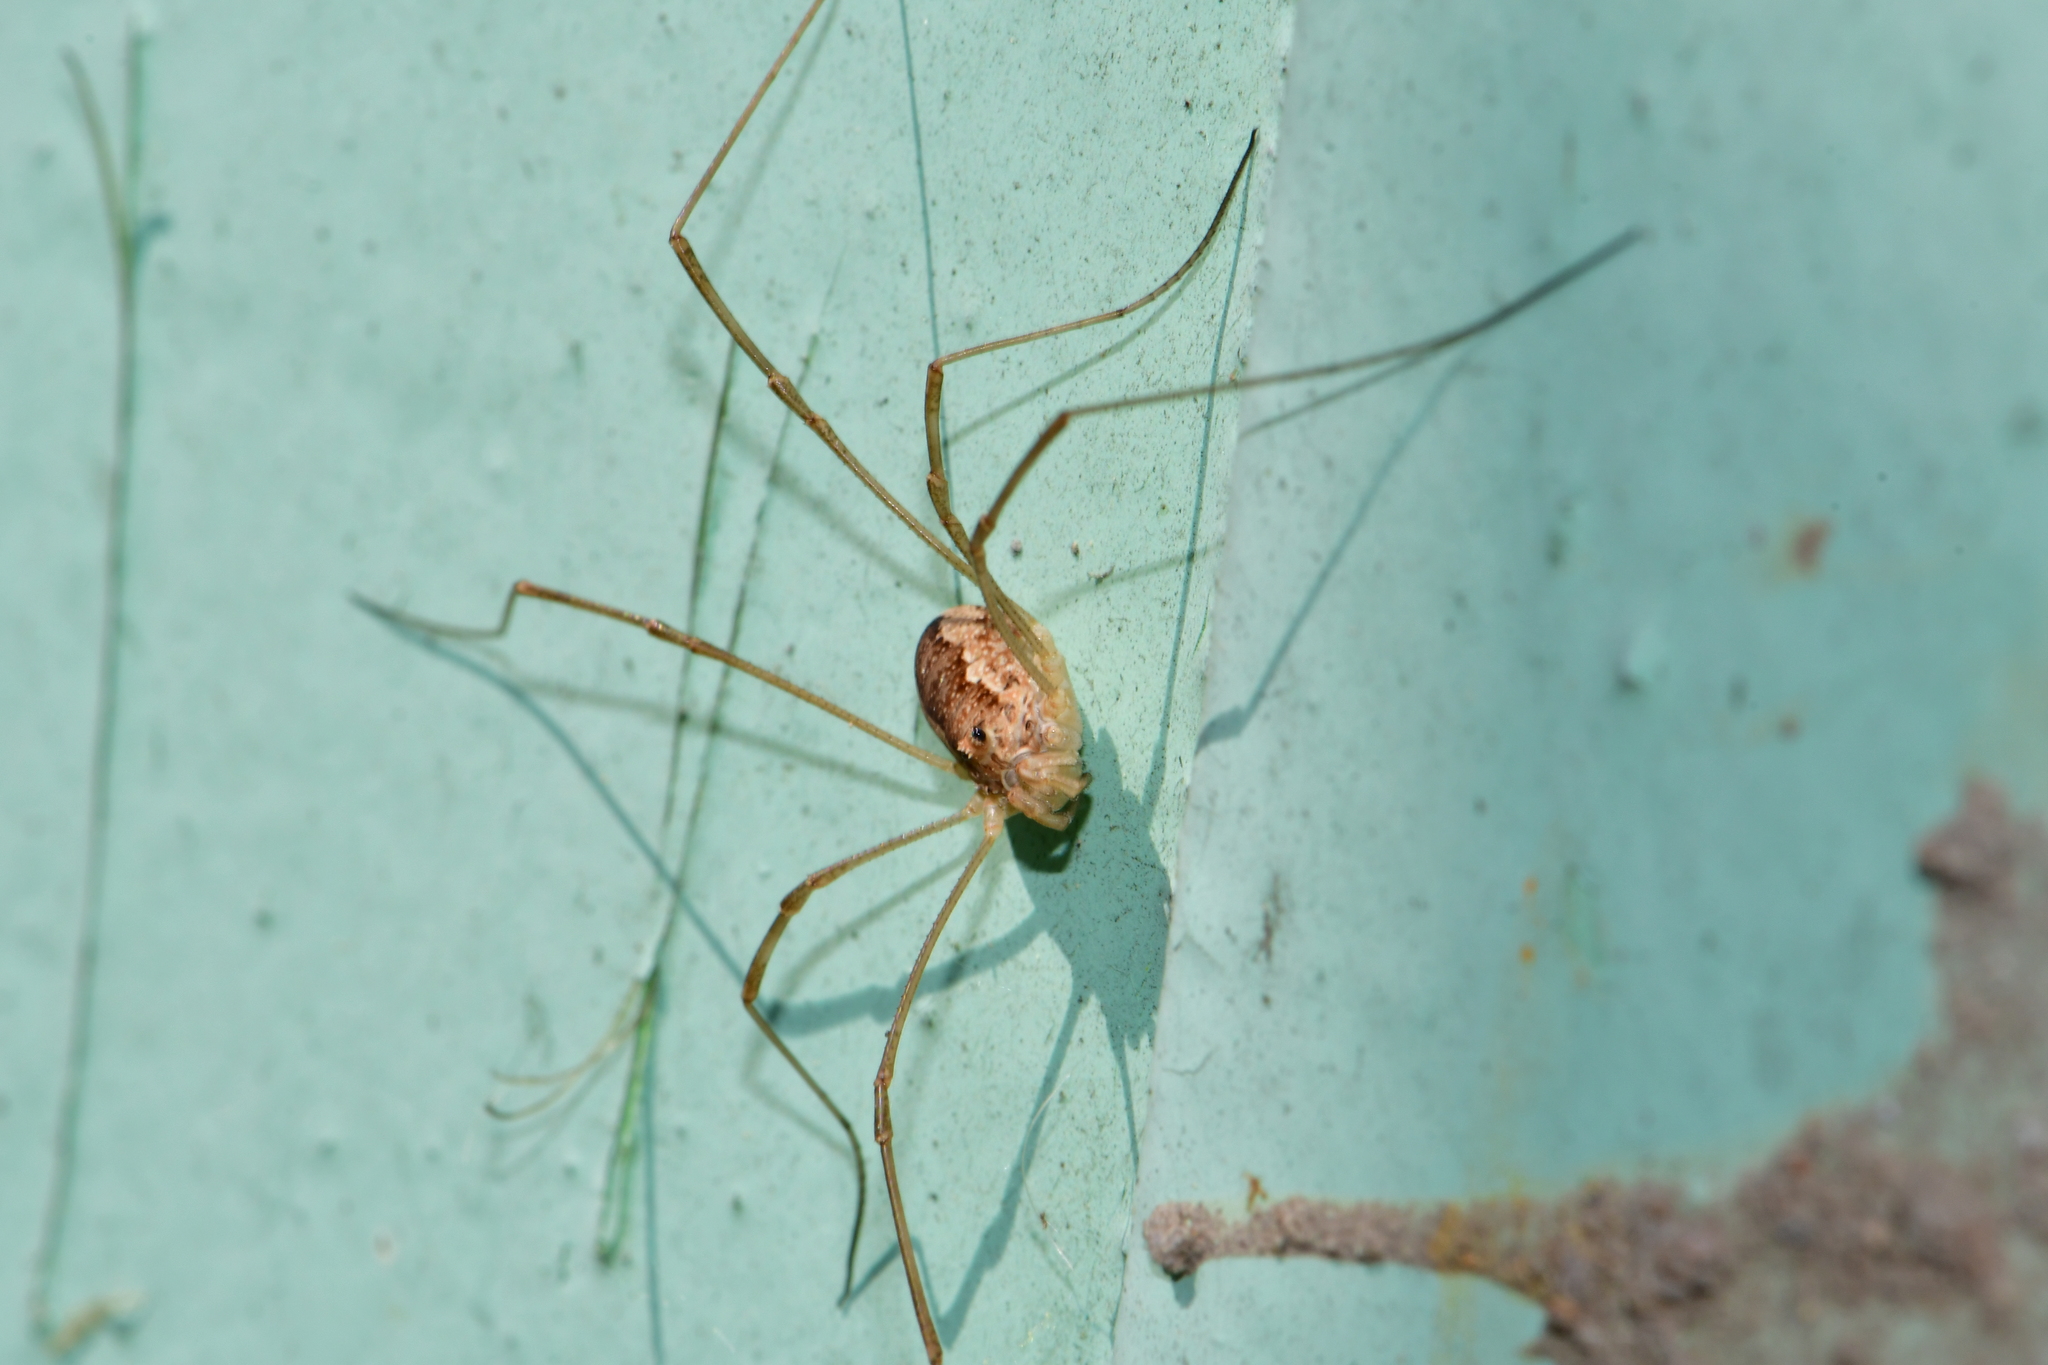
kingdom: Animalia
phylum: Arthropoda
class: Arachnida
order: Opiliones
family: Phalangiidae
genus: Rilaena
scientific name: Rilaena triangularis
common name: Spring harvestman
